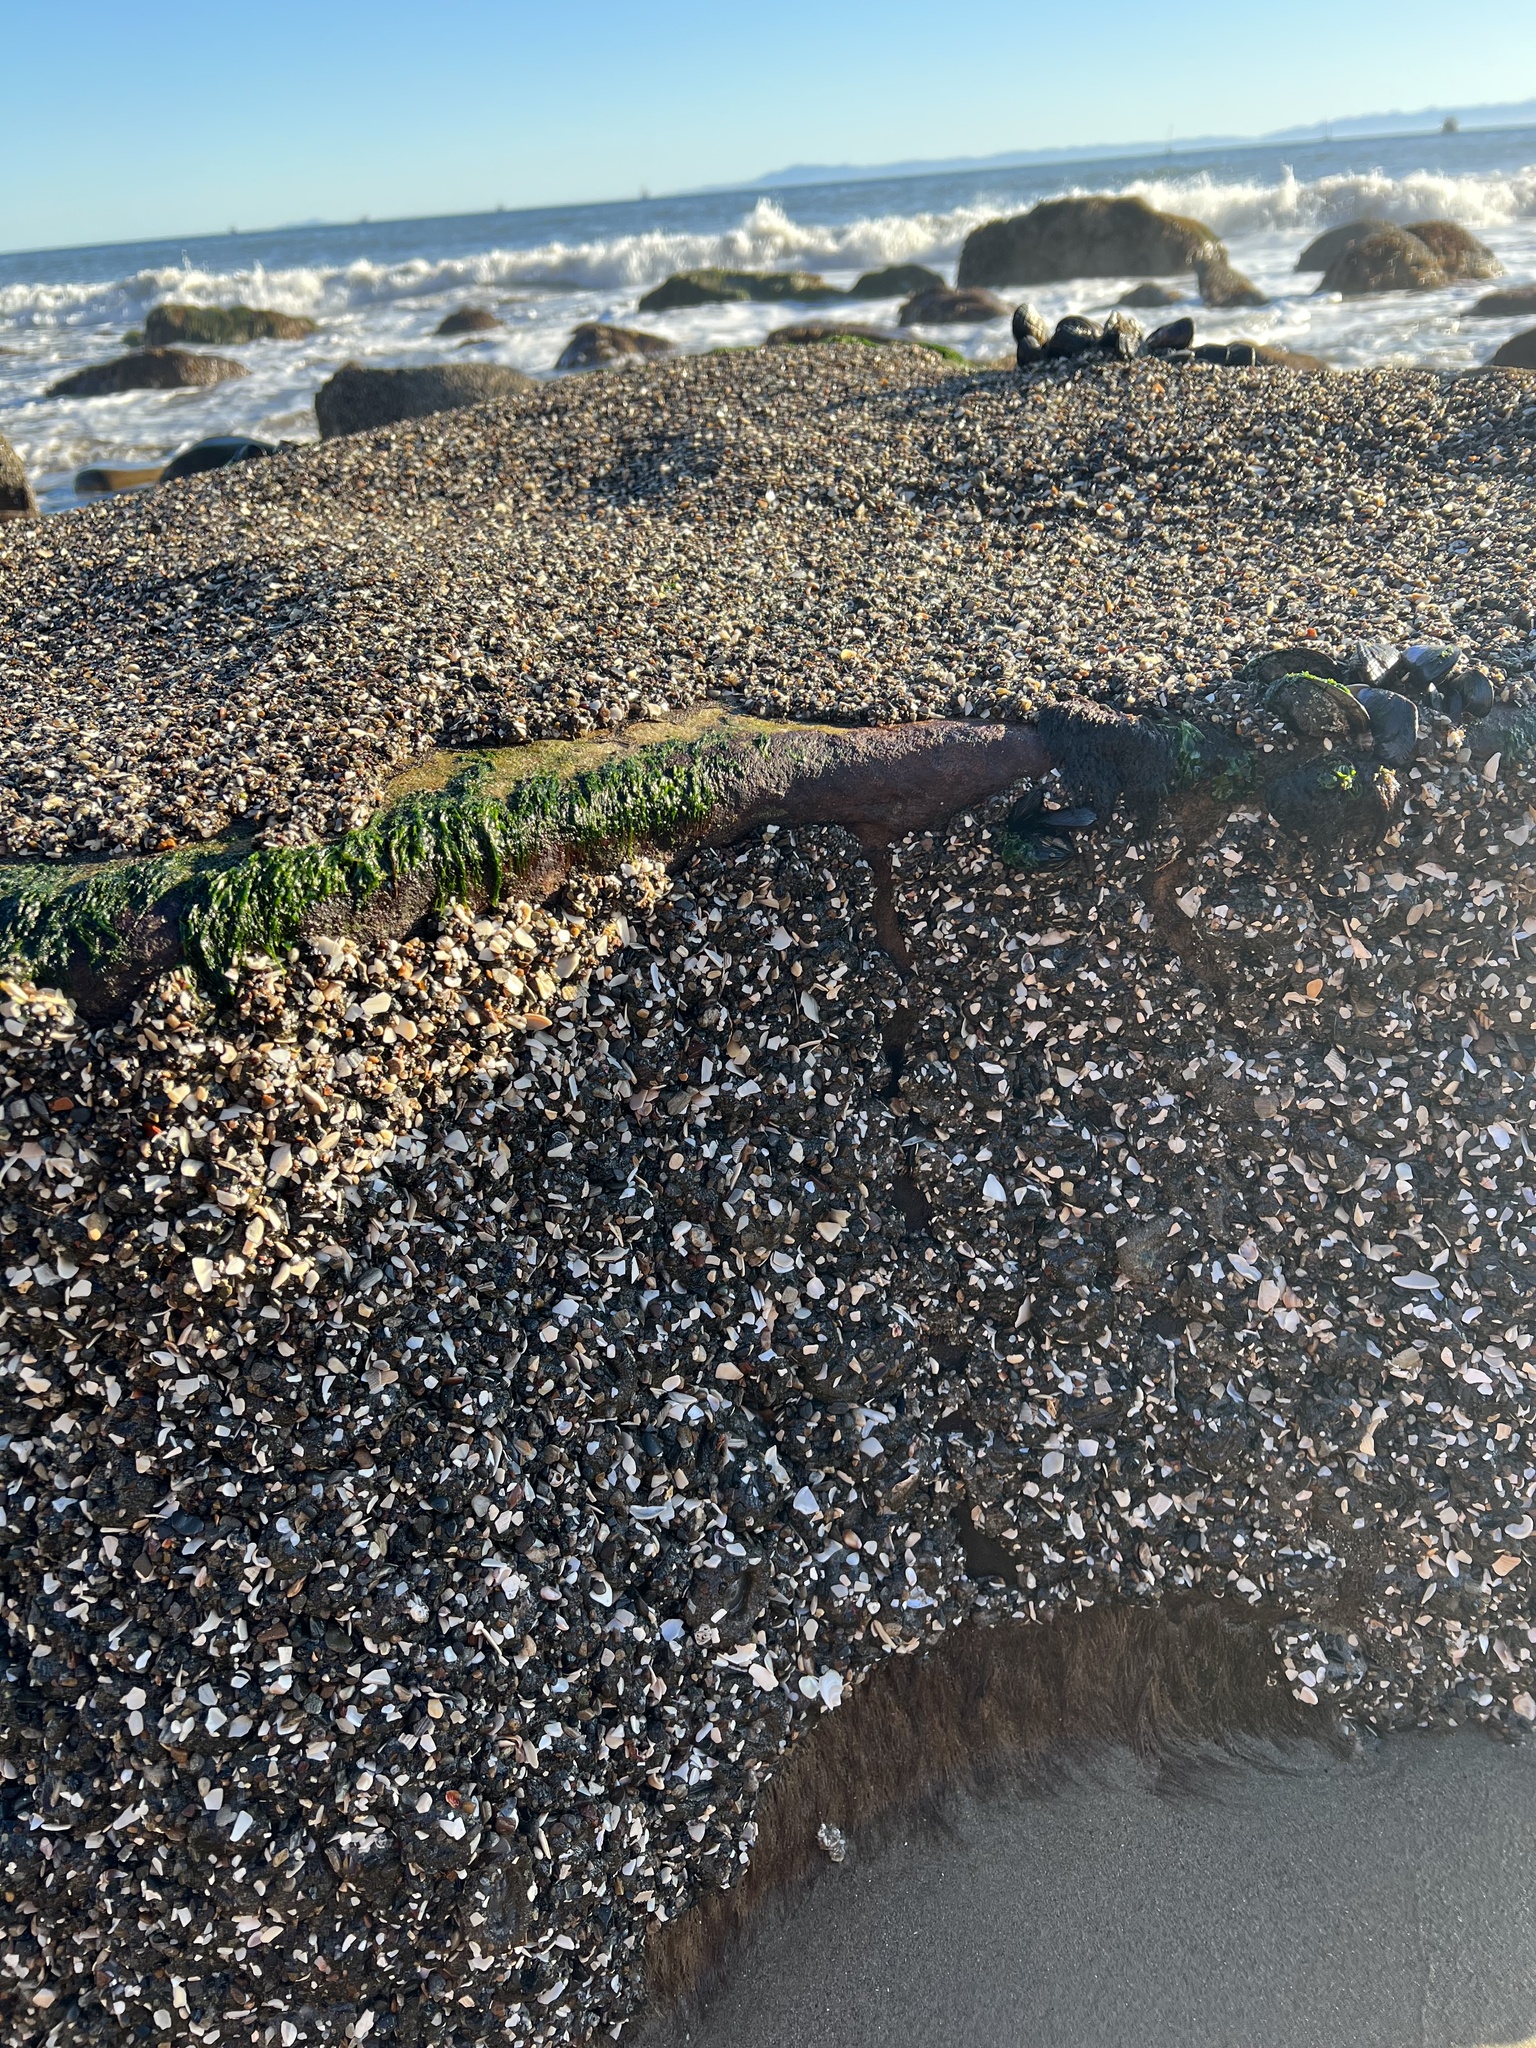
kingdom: Animalia
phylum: Cnidaria
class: Anthozoa
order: Actiniaria
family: Actiniidae
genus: Anthopleura
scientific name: Anthopleura elegantissima
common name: Clonal anemone
